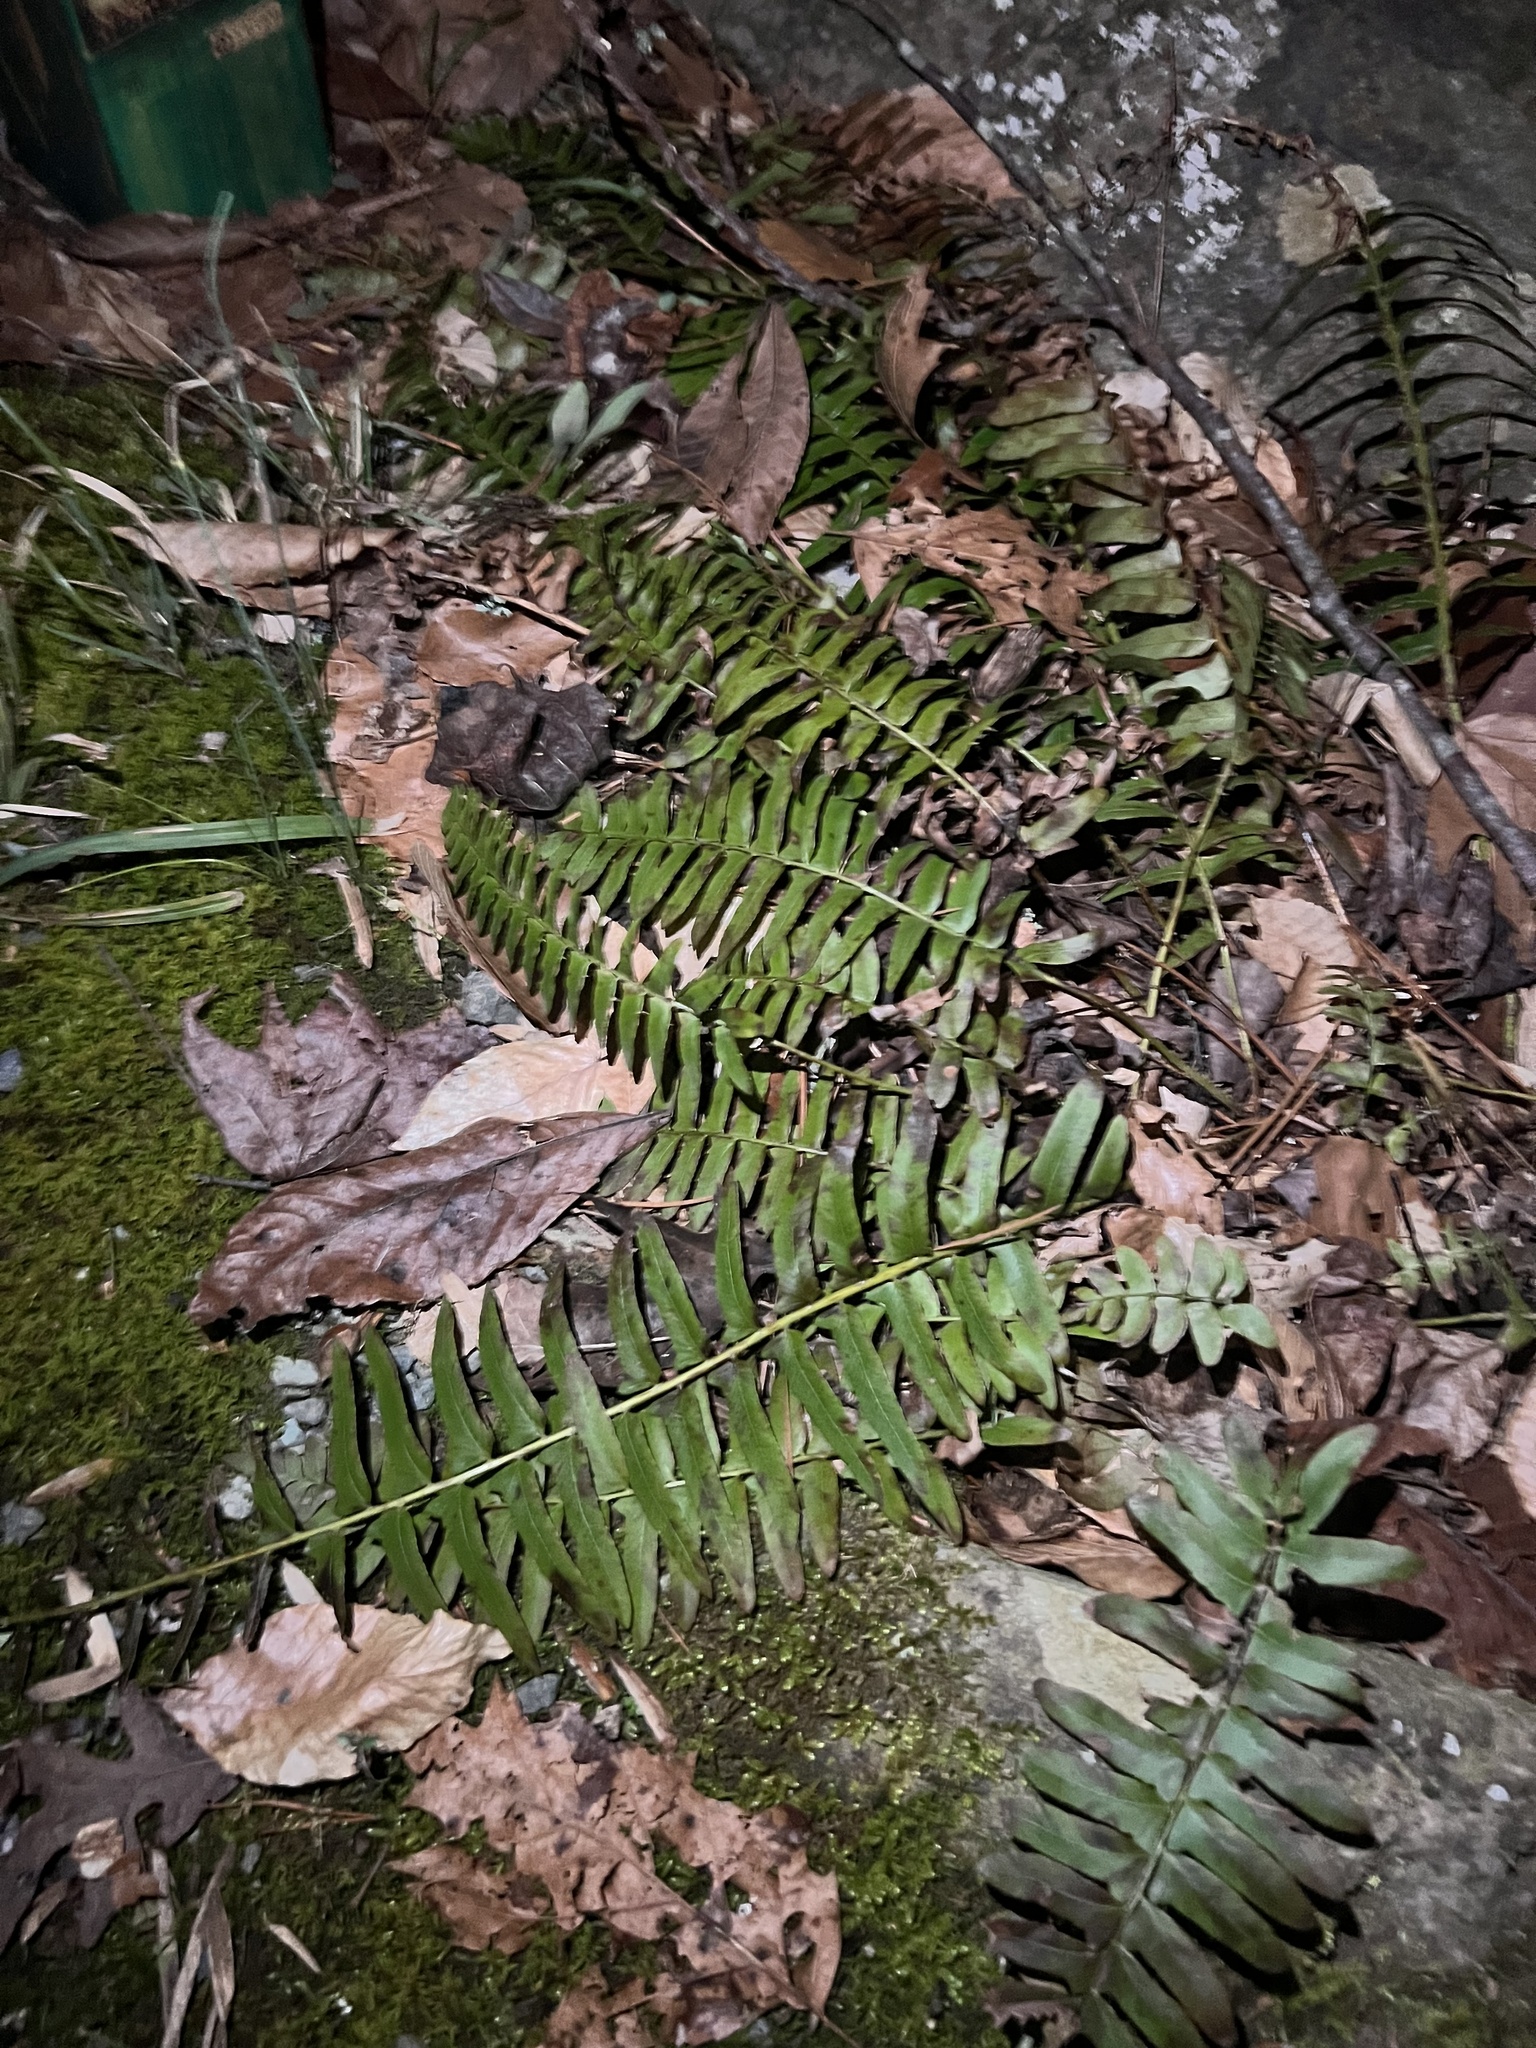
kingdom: Plantae
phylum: Tracheophyta
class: Polypodiopsida
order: Polypodiales
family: Dryopteridaceae
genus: Polystichum
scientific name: Polystichum acrostichoides
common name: Christmas fern
